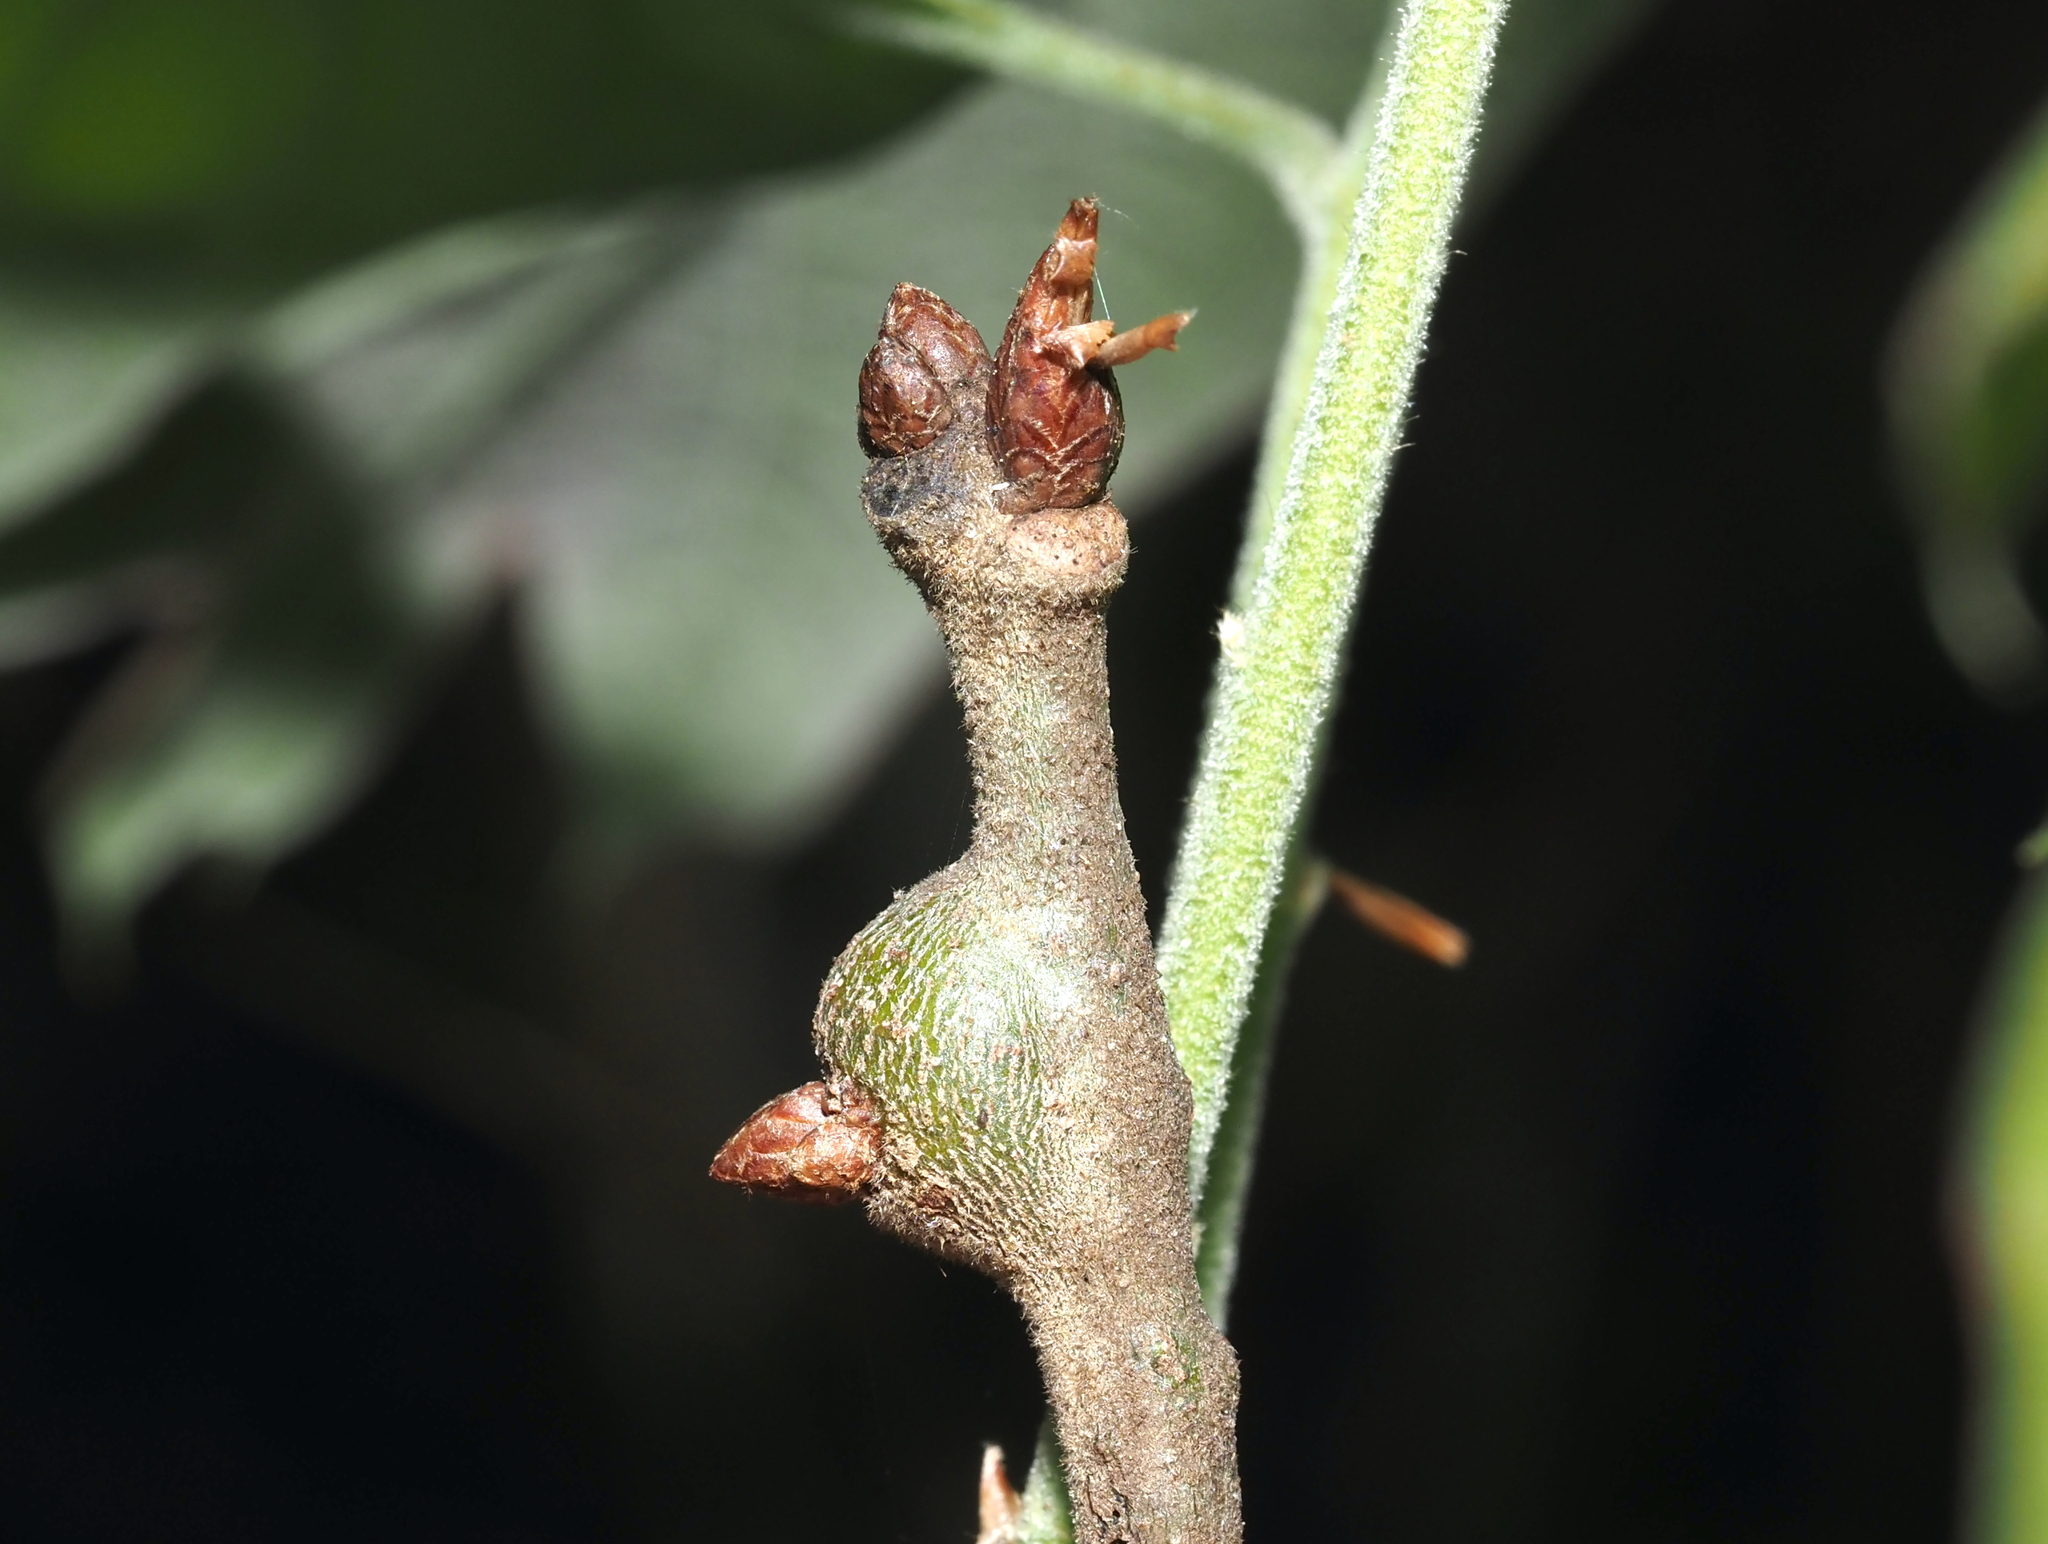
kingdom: Animalia
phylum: Arthropoda
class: Insecta
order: Hymenoptera
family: Cynipidae
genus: Zapatella
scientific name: Zapatella quercusmedullae
